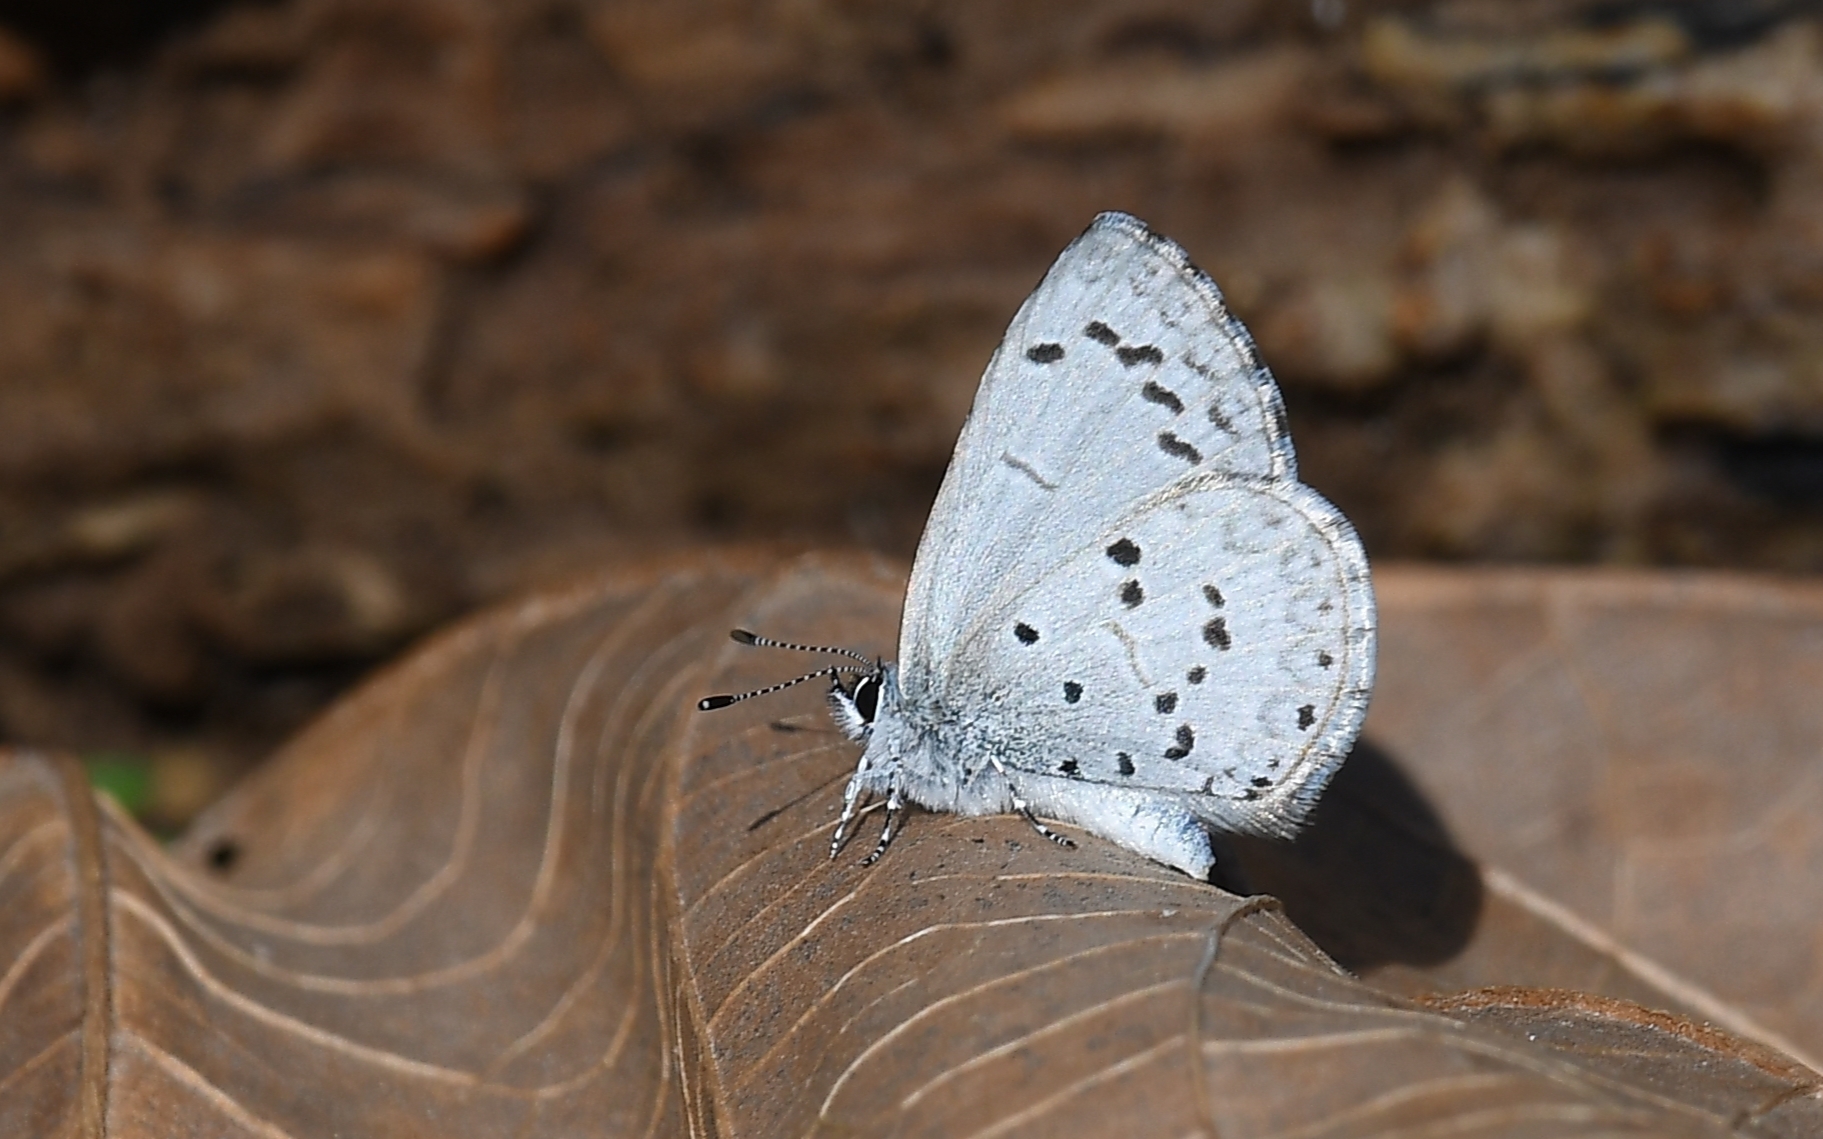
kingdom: Animalia
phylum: Arthropoda
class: Insecta
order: Lepidoptera
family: Lycaenidae
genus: Celastrina
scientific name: Celastrina ladon
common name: Spring azure
